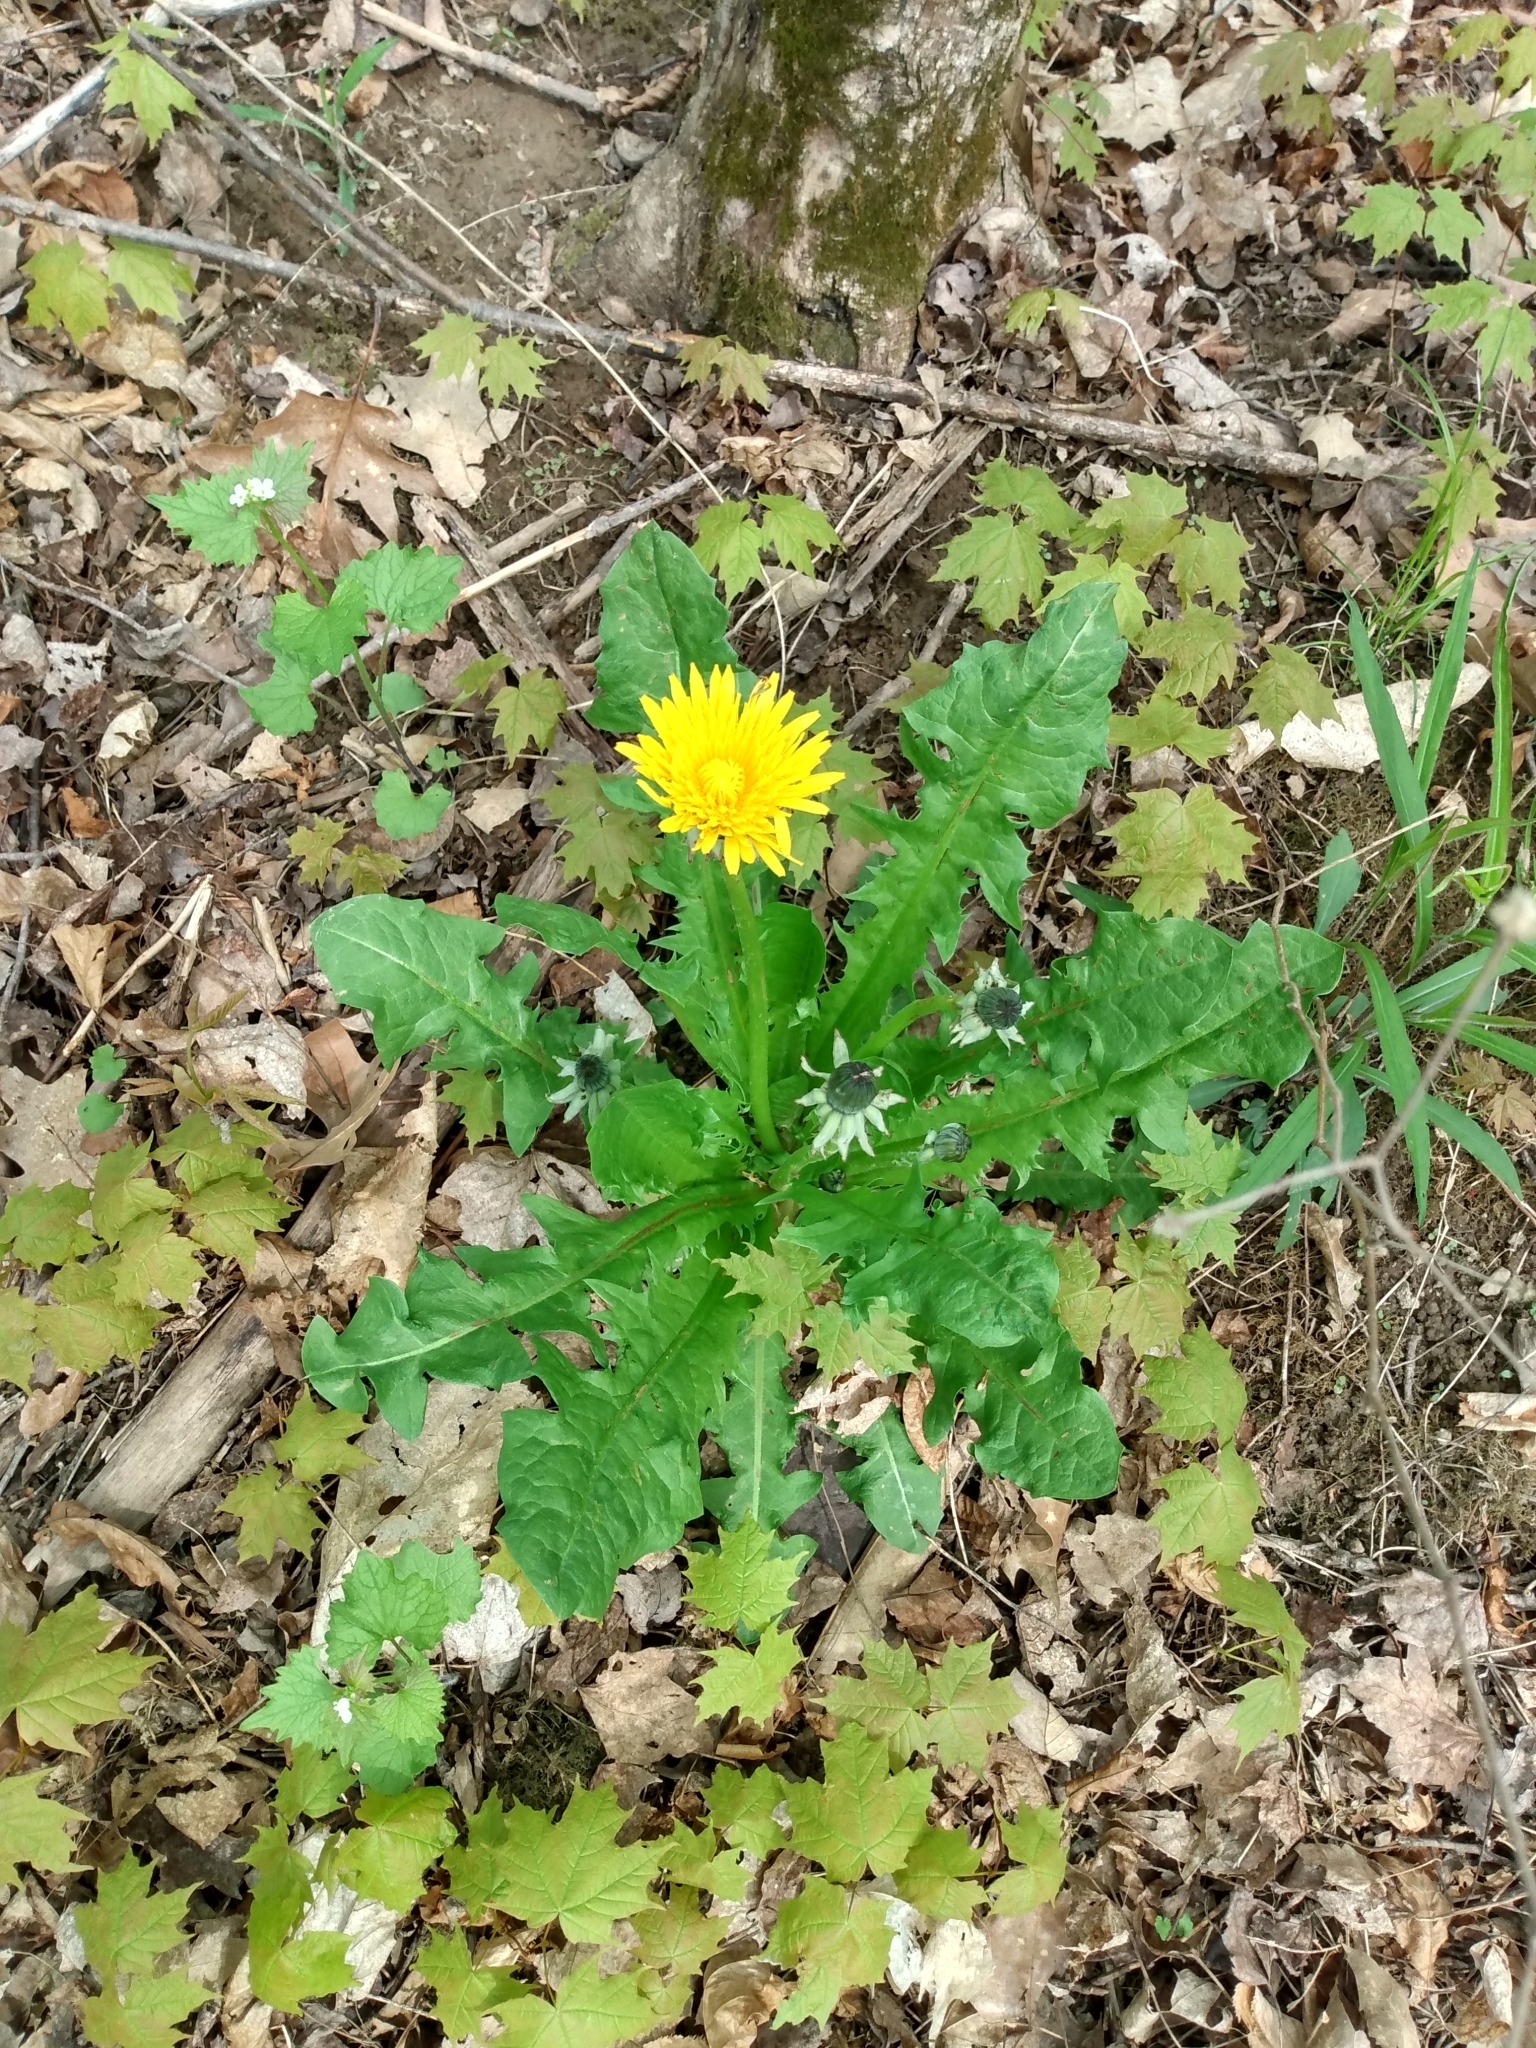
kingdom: Plantae
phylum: Tracheophyta
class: Magnoliopsida
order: Asterales
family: Asteraceae
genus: Taraxacum
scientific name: Taraxacum officinale
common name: Common dandelion
